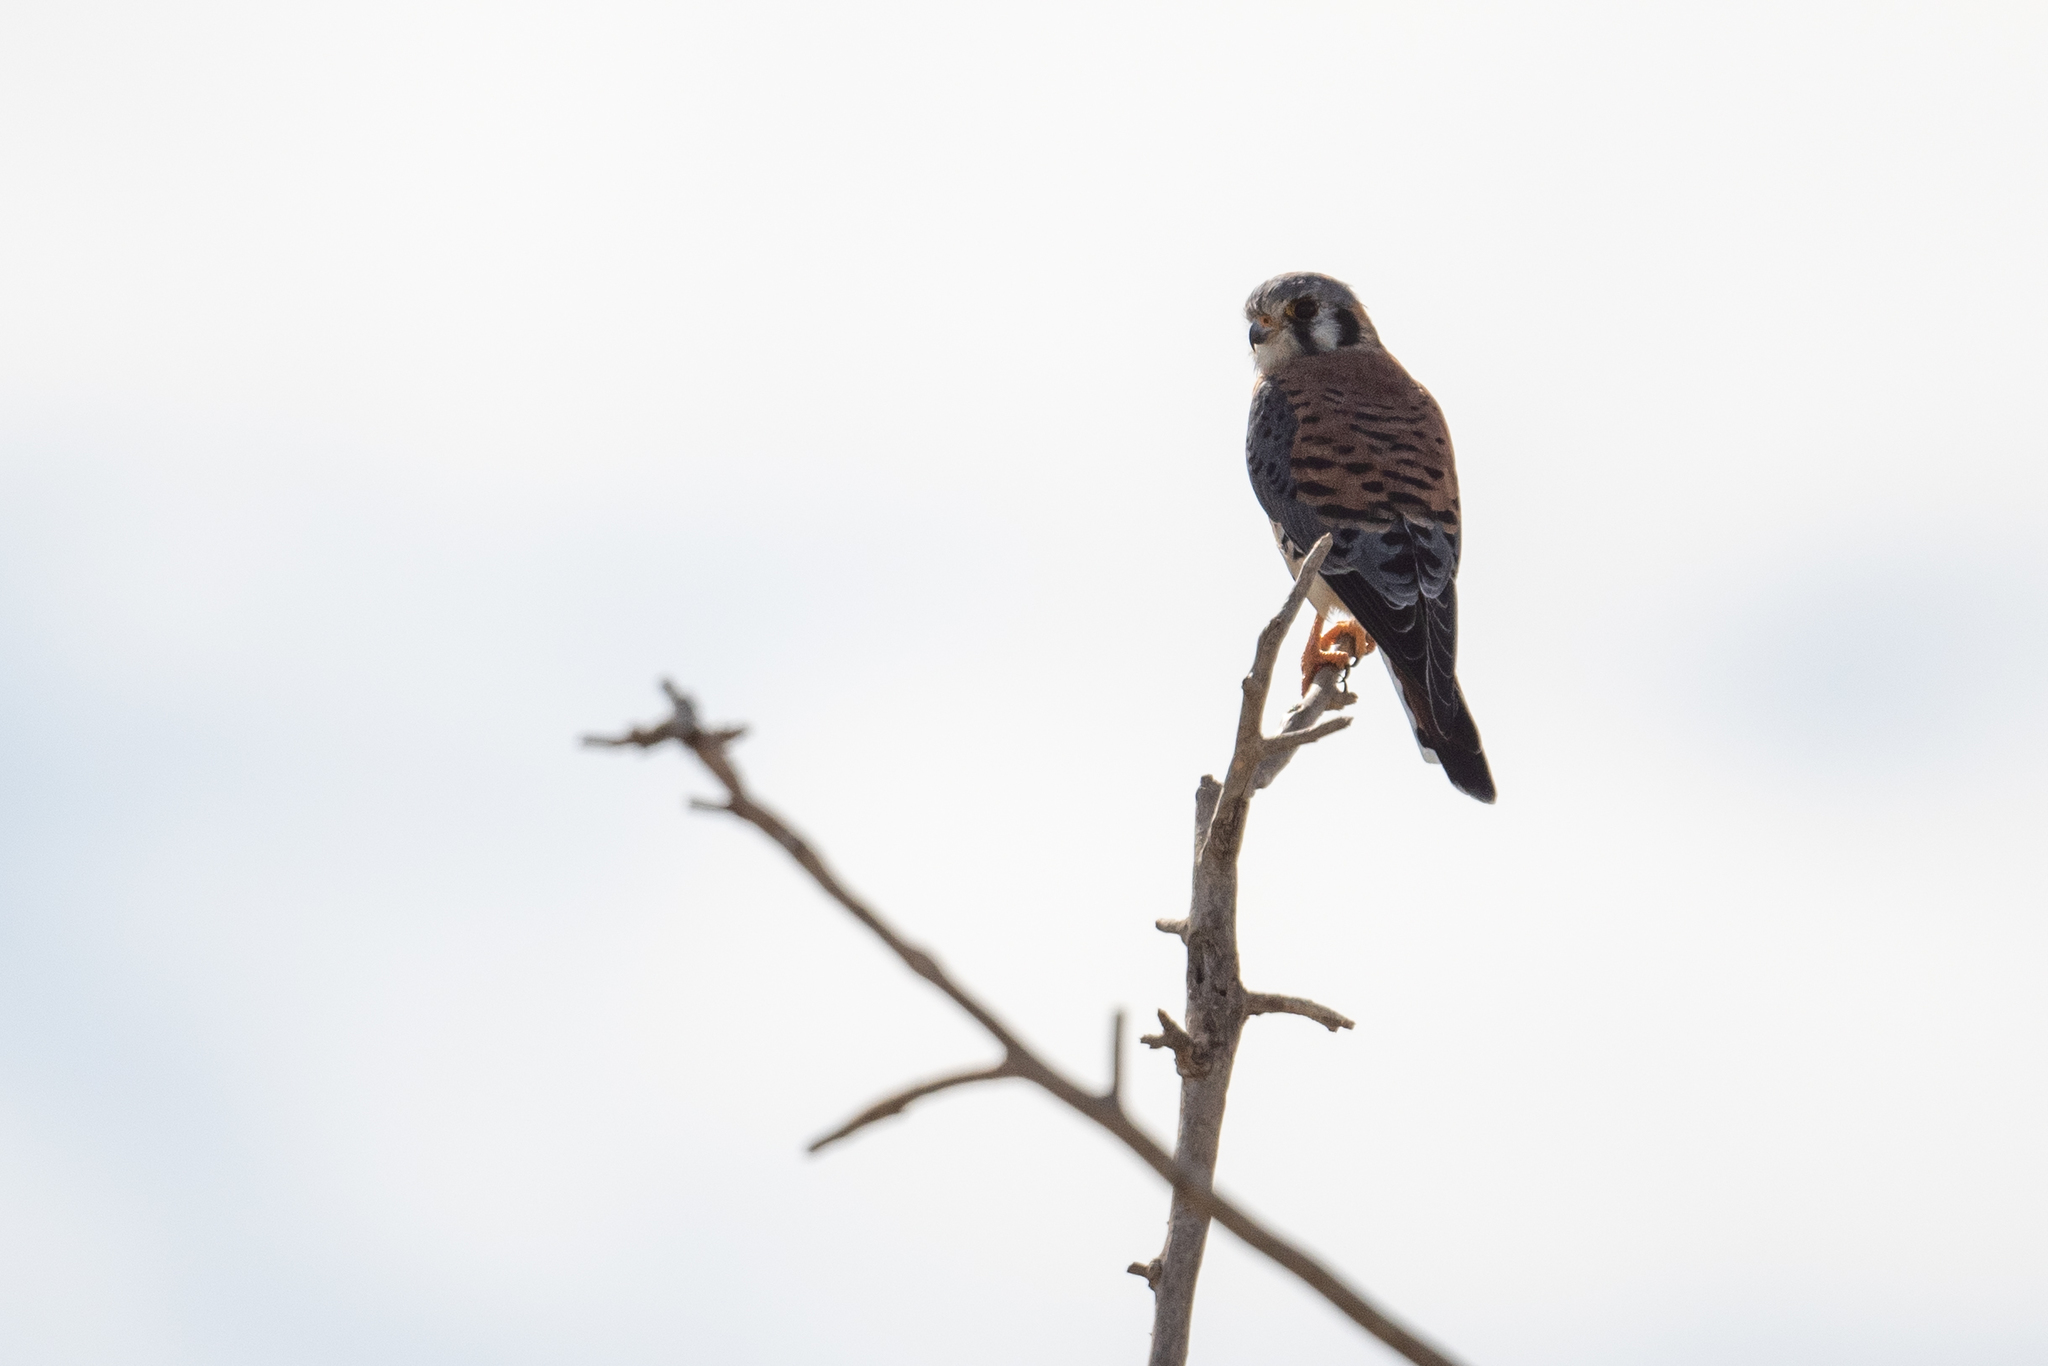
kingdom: Animalia
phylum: Chordata
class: Aves
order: Falconiformes
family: Falconidae
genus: Falco
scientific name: Falco sparverius
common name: American kestrel
